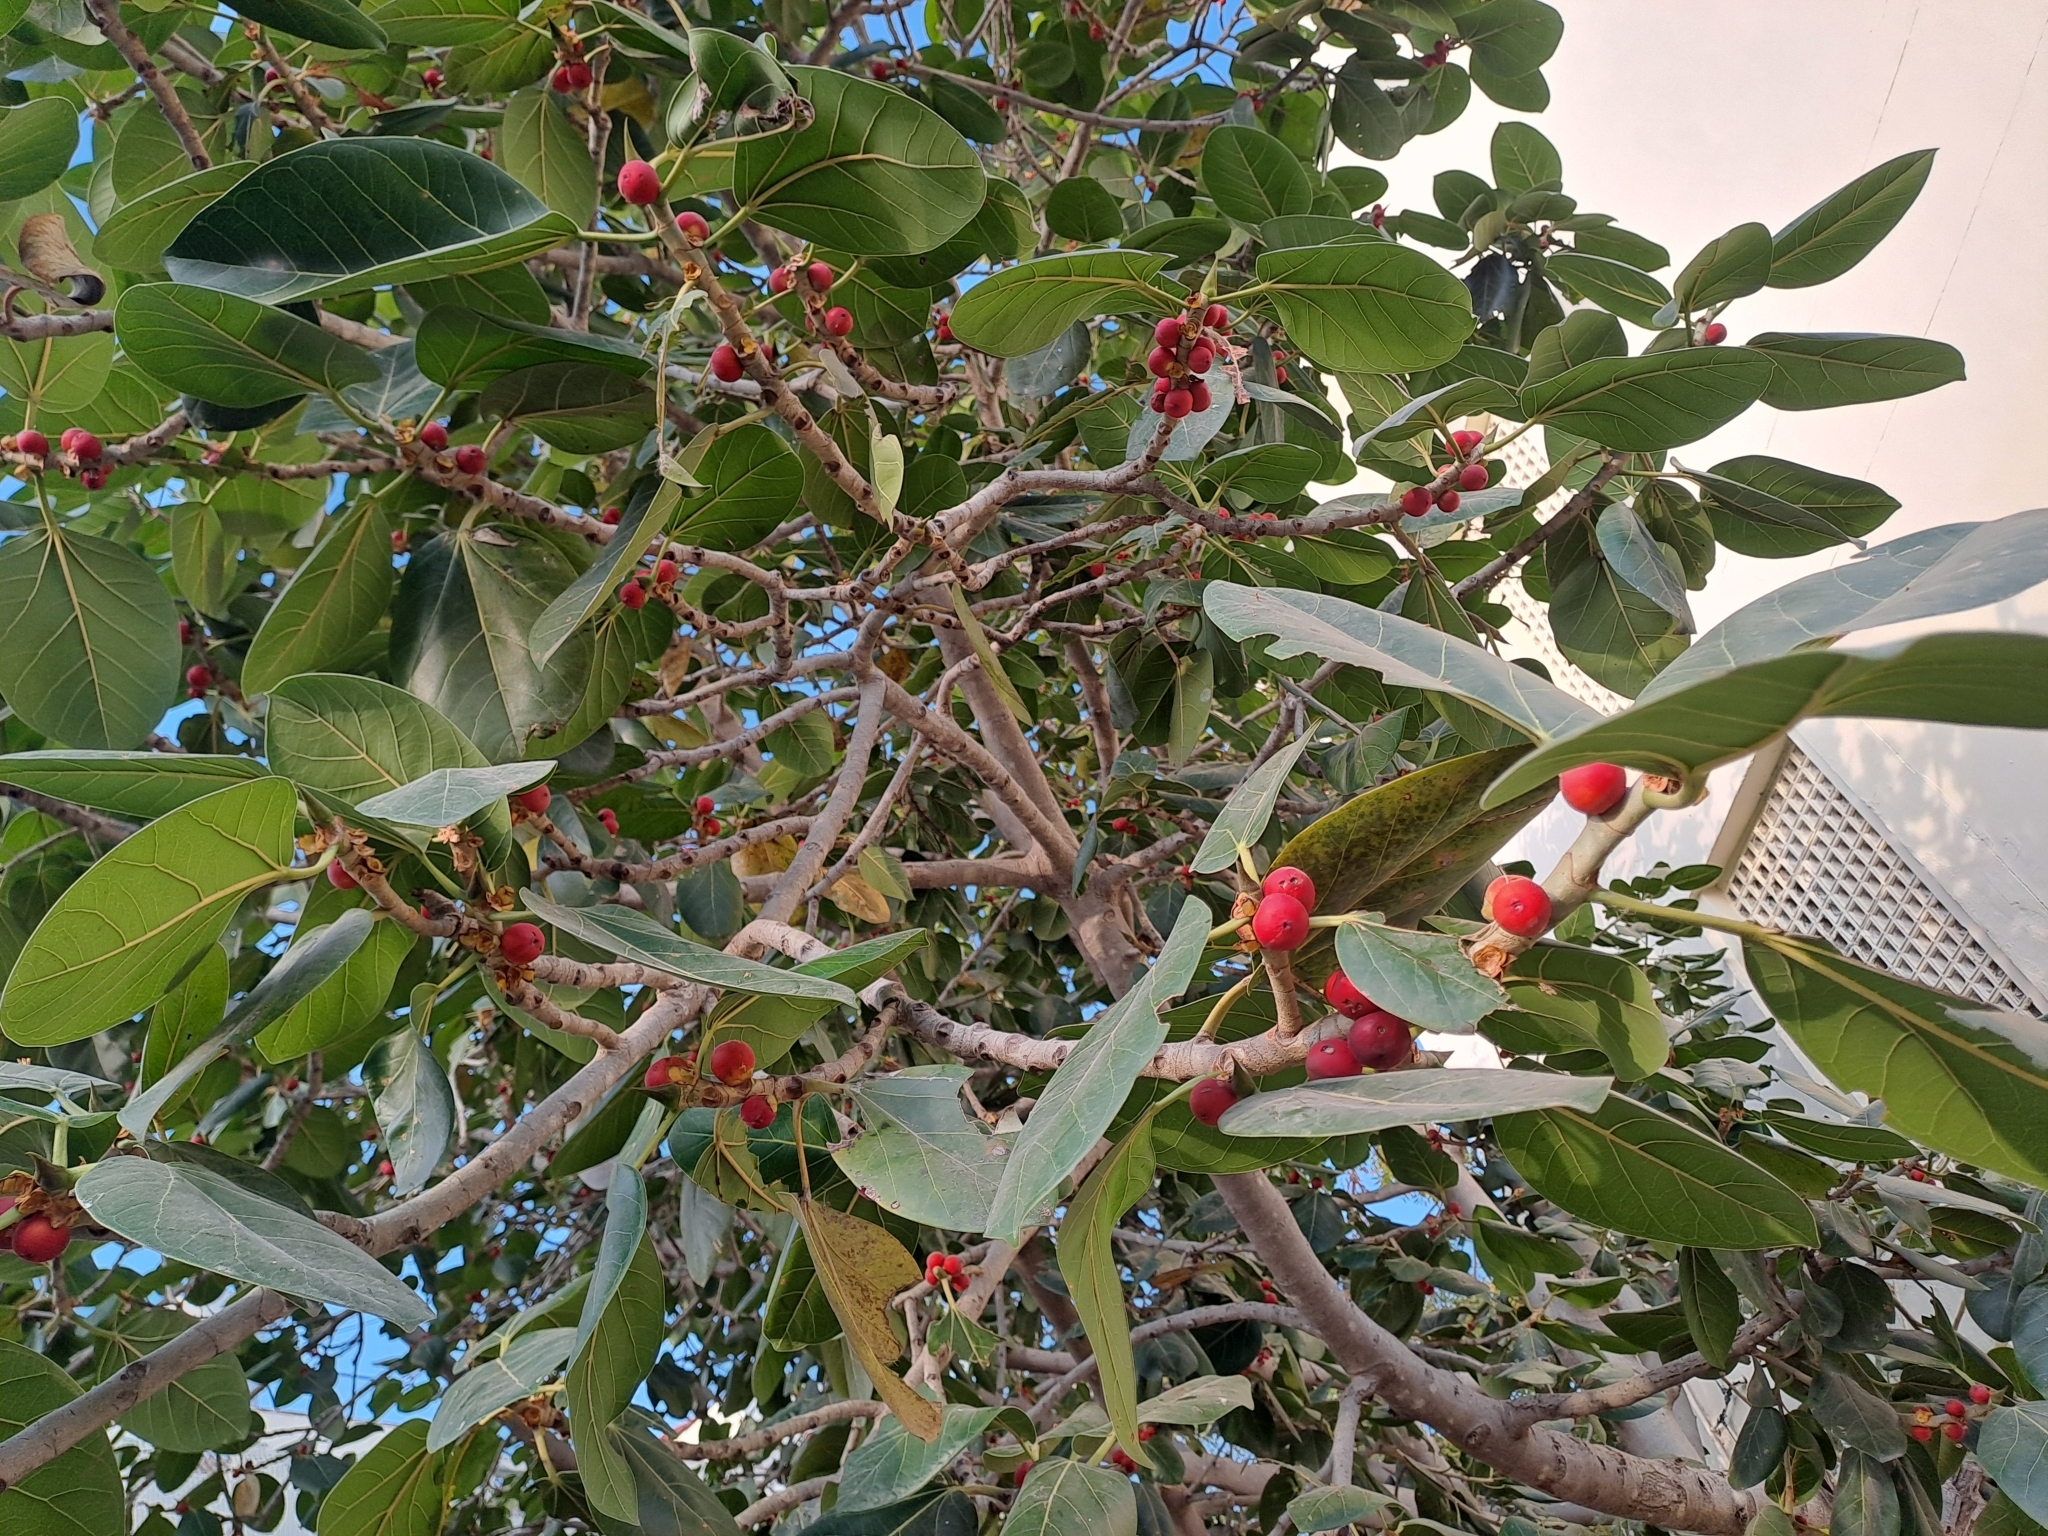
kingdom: Plantae
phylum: Tracheophyta
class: Magnoliopsida
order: Rosales
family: Moraceae
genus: Ficus
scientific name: Ficus benghalensis
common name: Indian banyan
